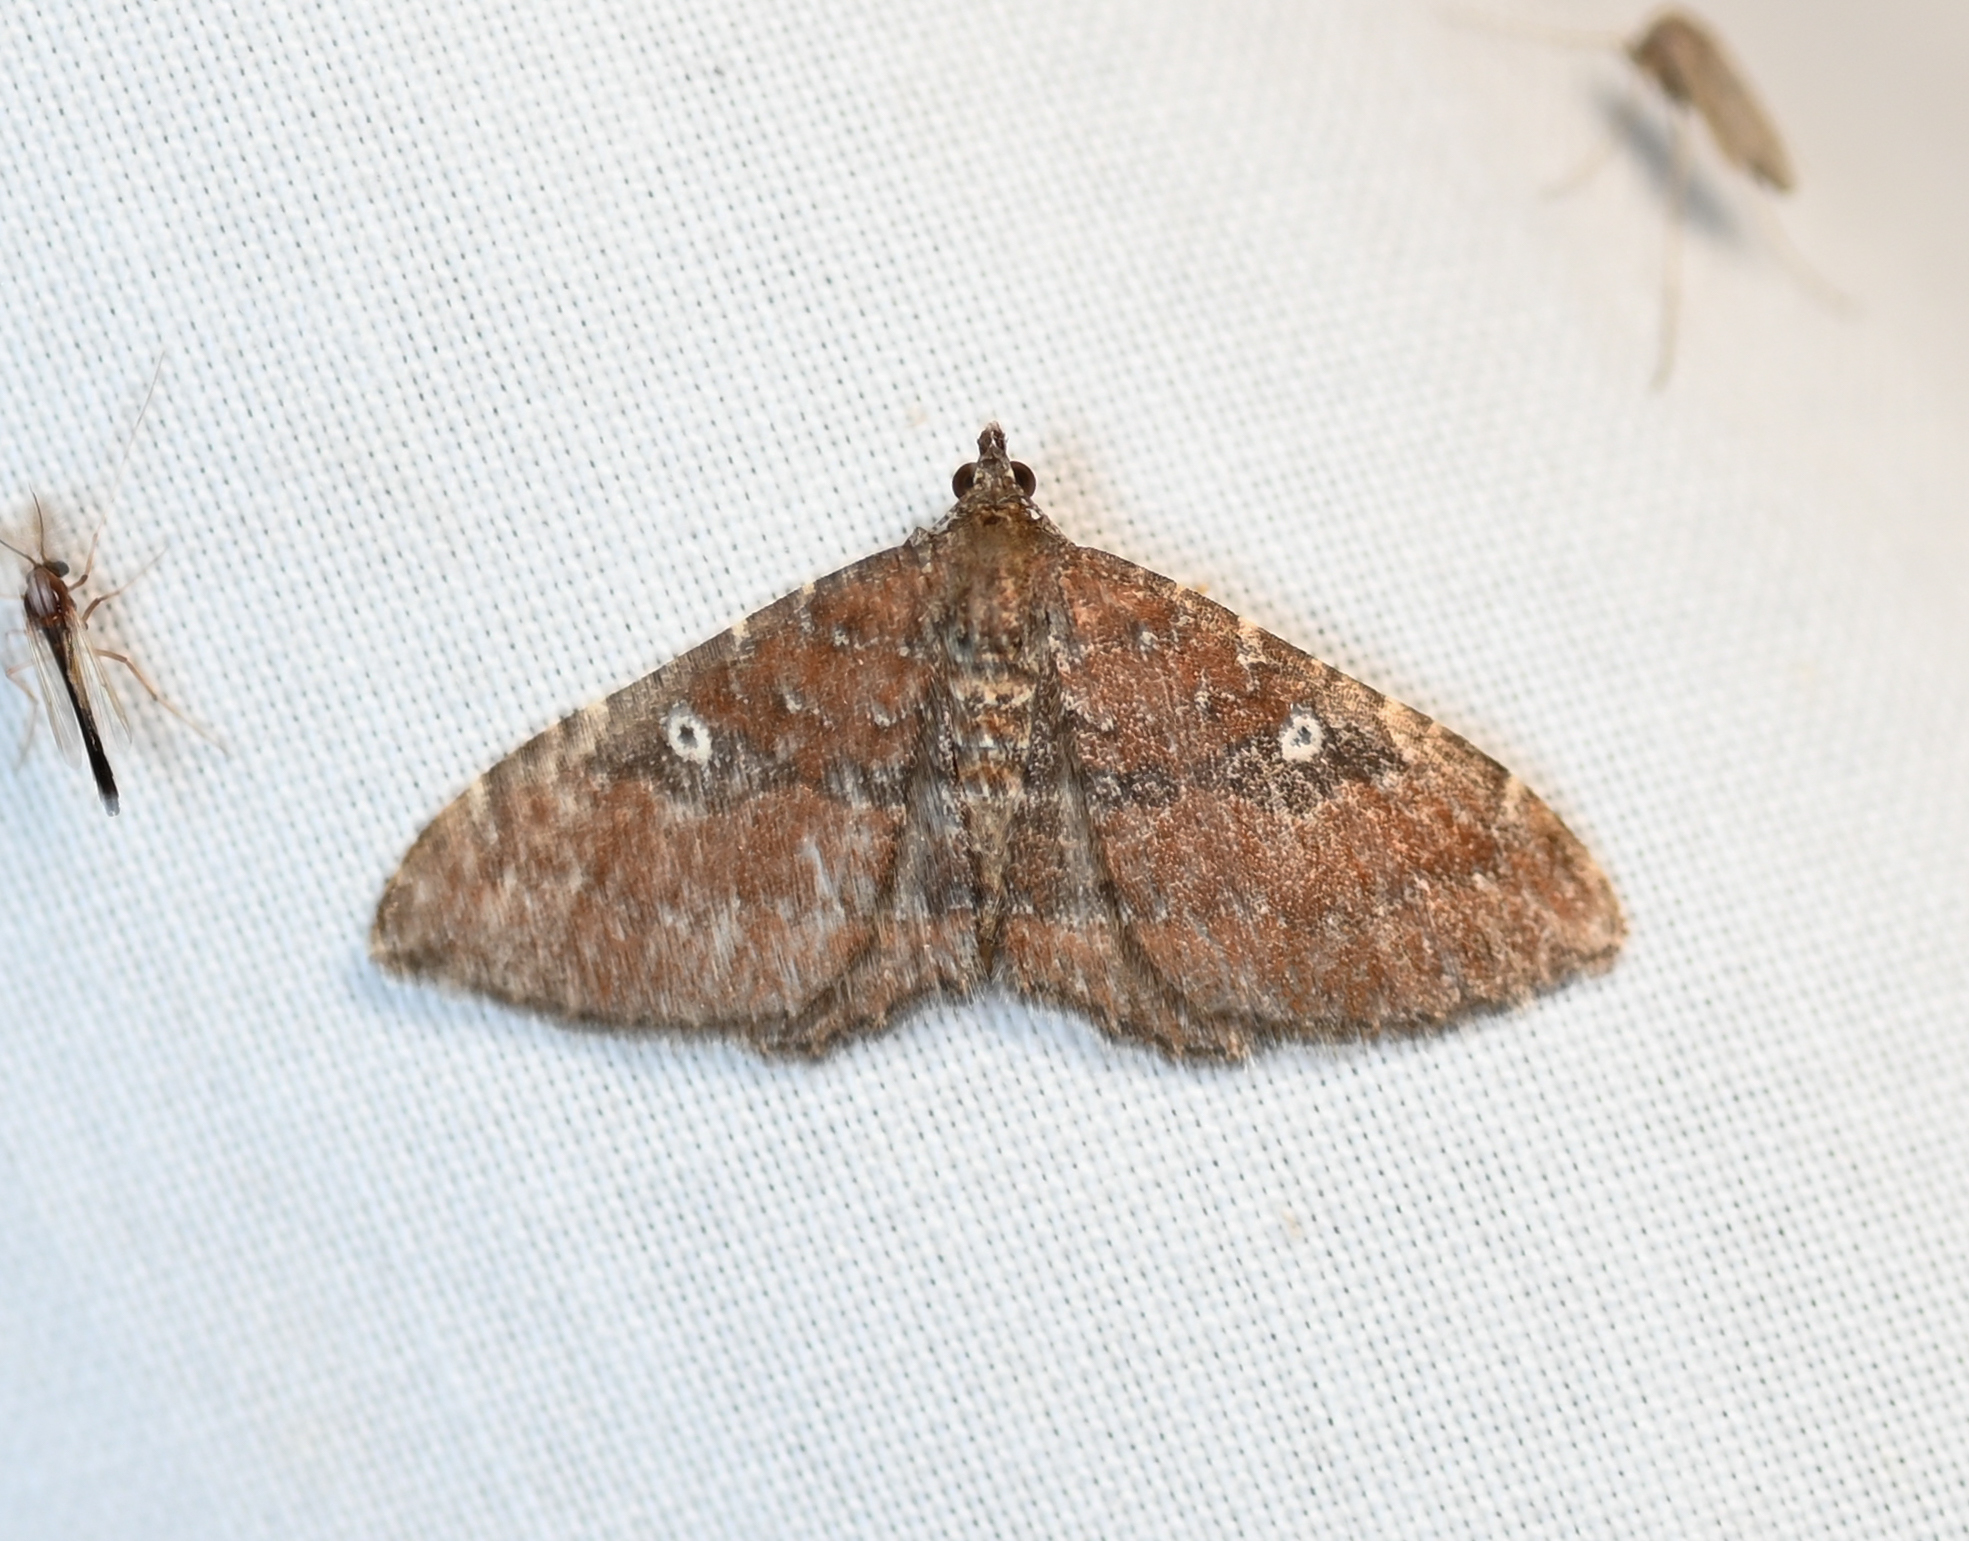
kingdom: Animalia
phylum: Arthropoda
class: Insecta
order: Lepidoptera
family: Geometridae
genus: Orthonama
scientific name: Orthonama obstipata
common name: The gem
